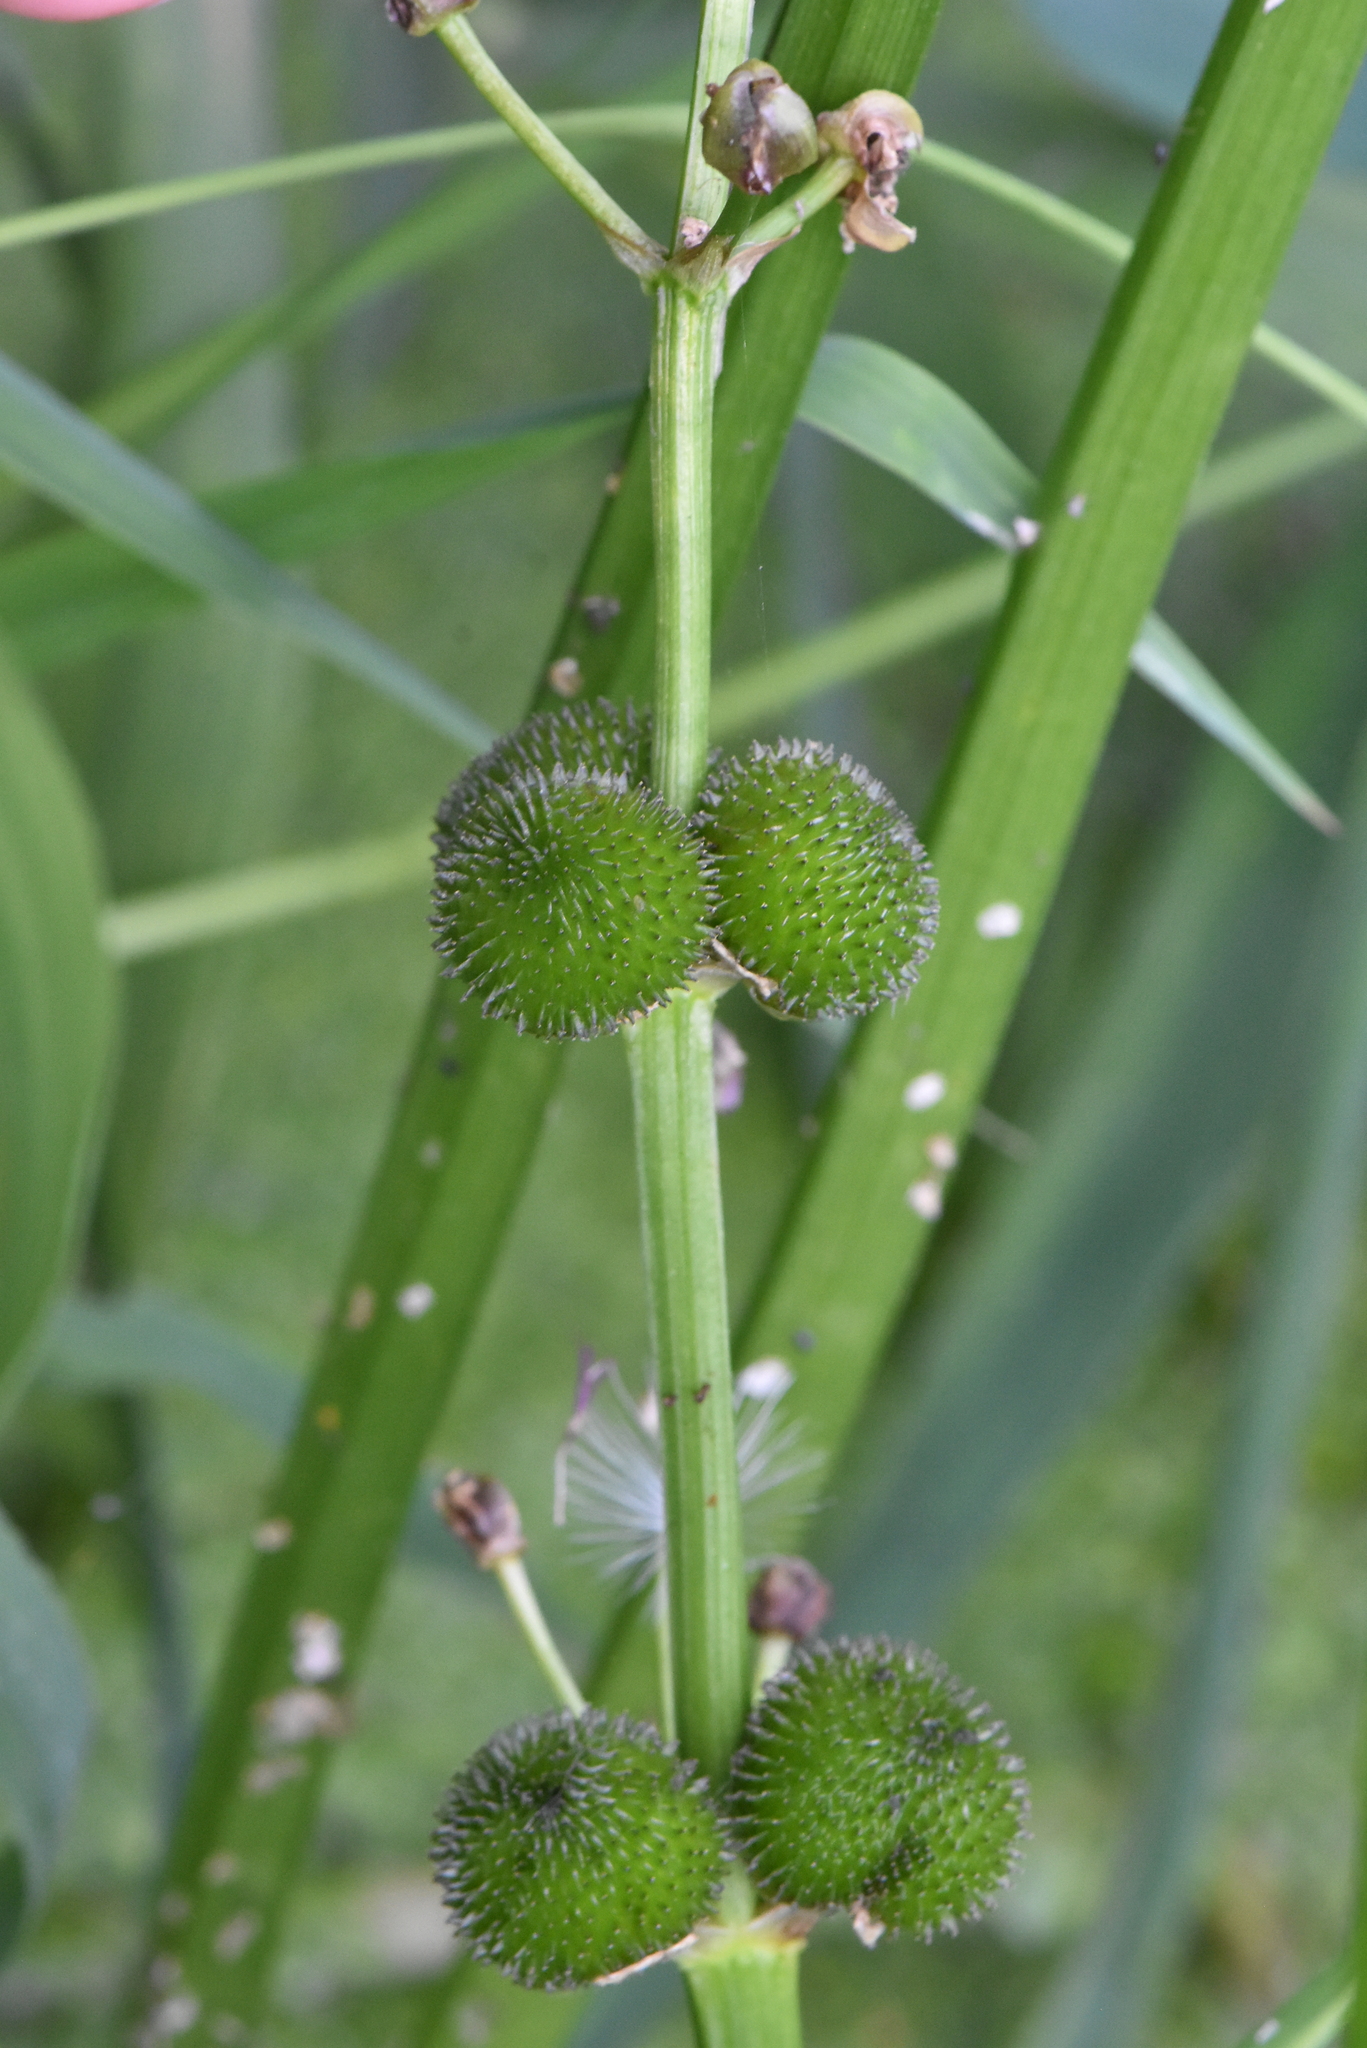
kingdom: Plantae
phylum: Tracheophyta
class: Liliopsida
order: Alismatales
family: Alismataceae
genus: Sagittaria
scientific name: Sagittaria sagittifolia
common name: Arrowhead
